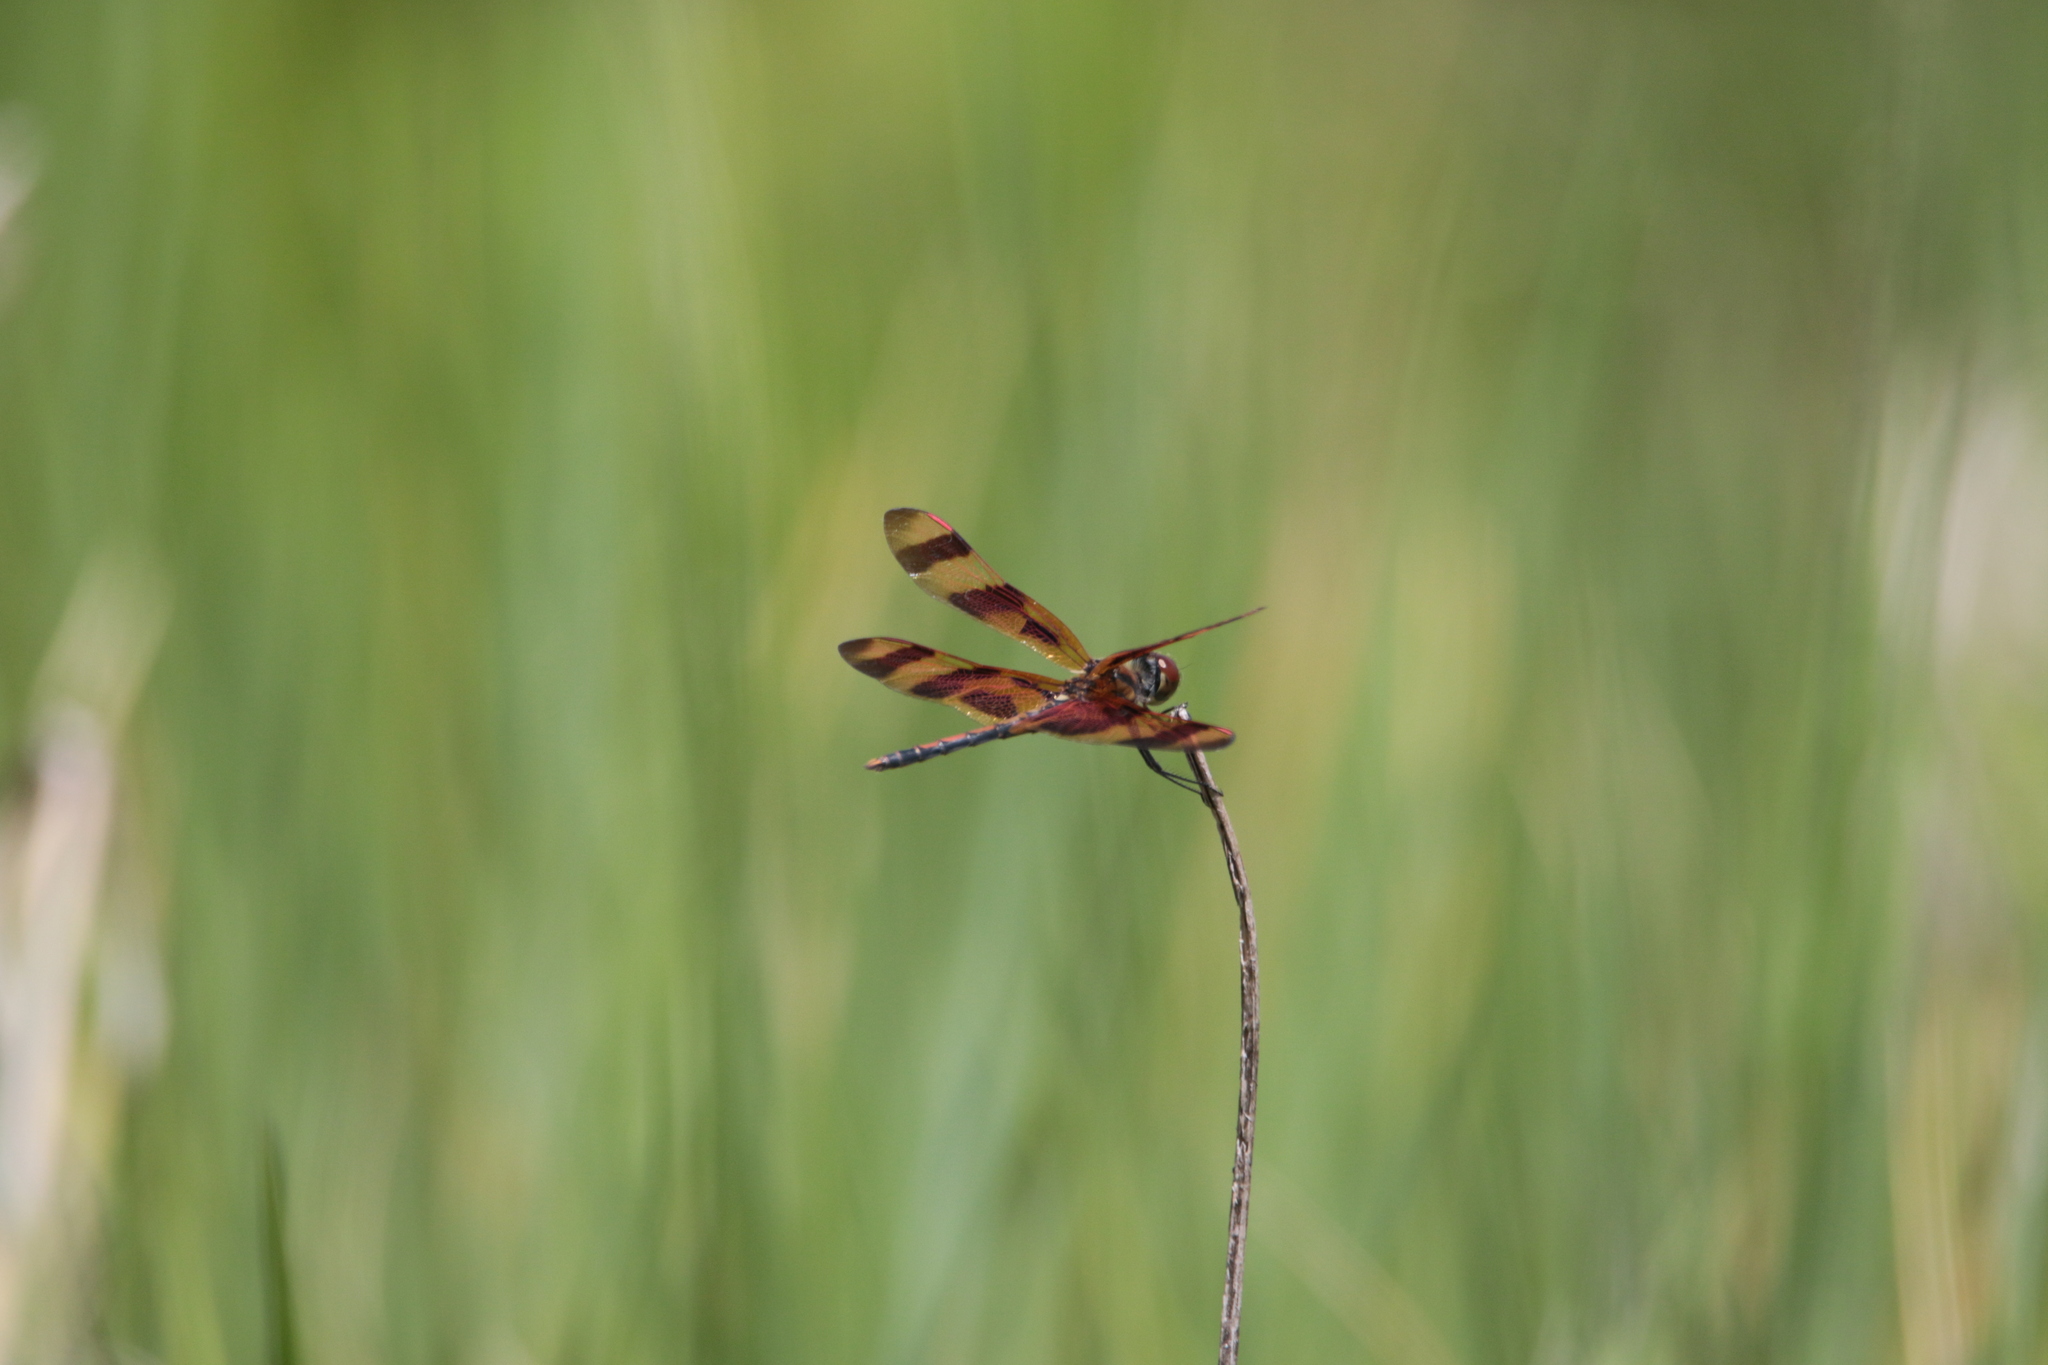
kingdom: Animalia
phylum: Arthropoda
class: Insecta
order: Odonata
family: Libellulidae
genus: Celithemis
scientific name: Celithemis eponina
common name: Halloween pennant
